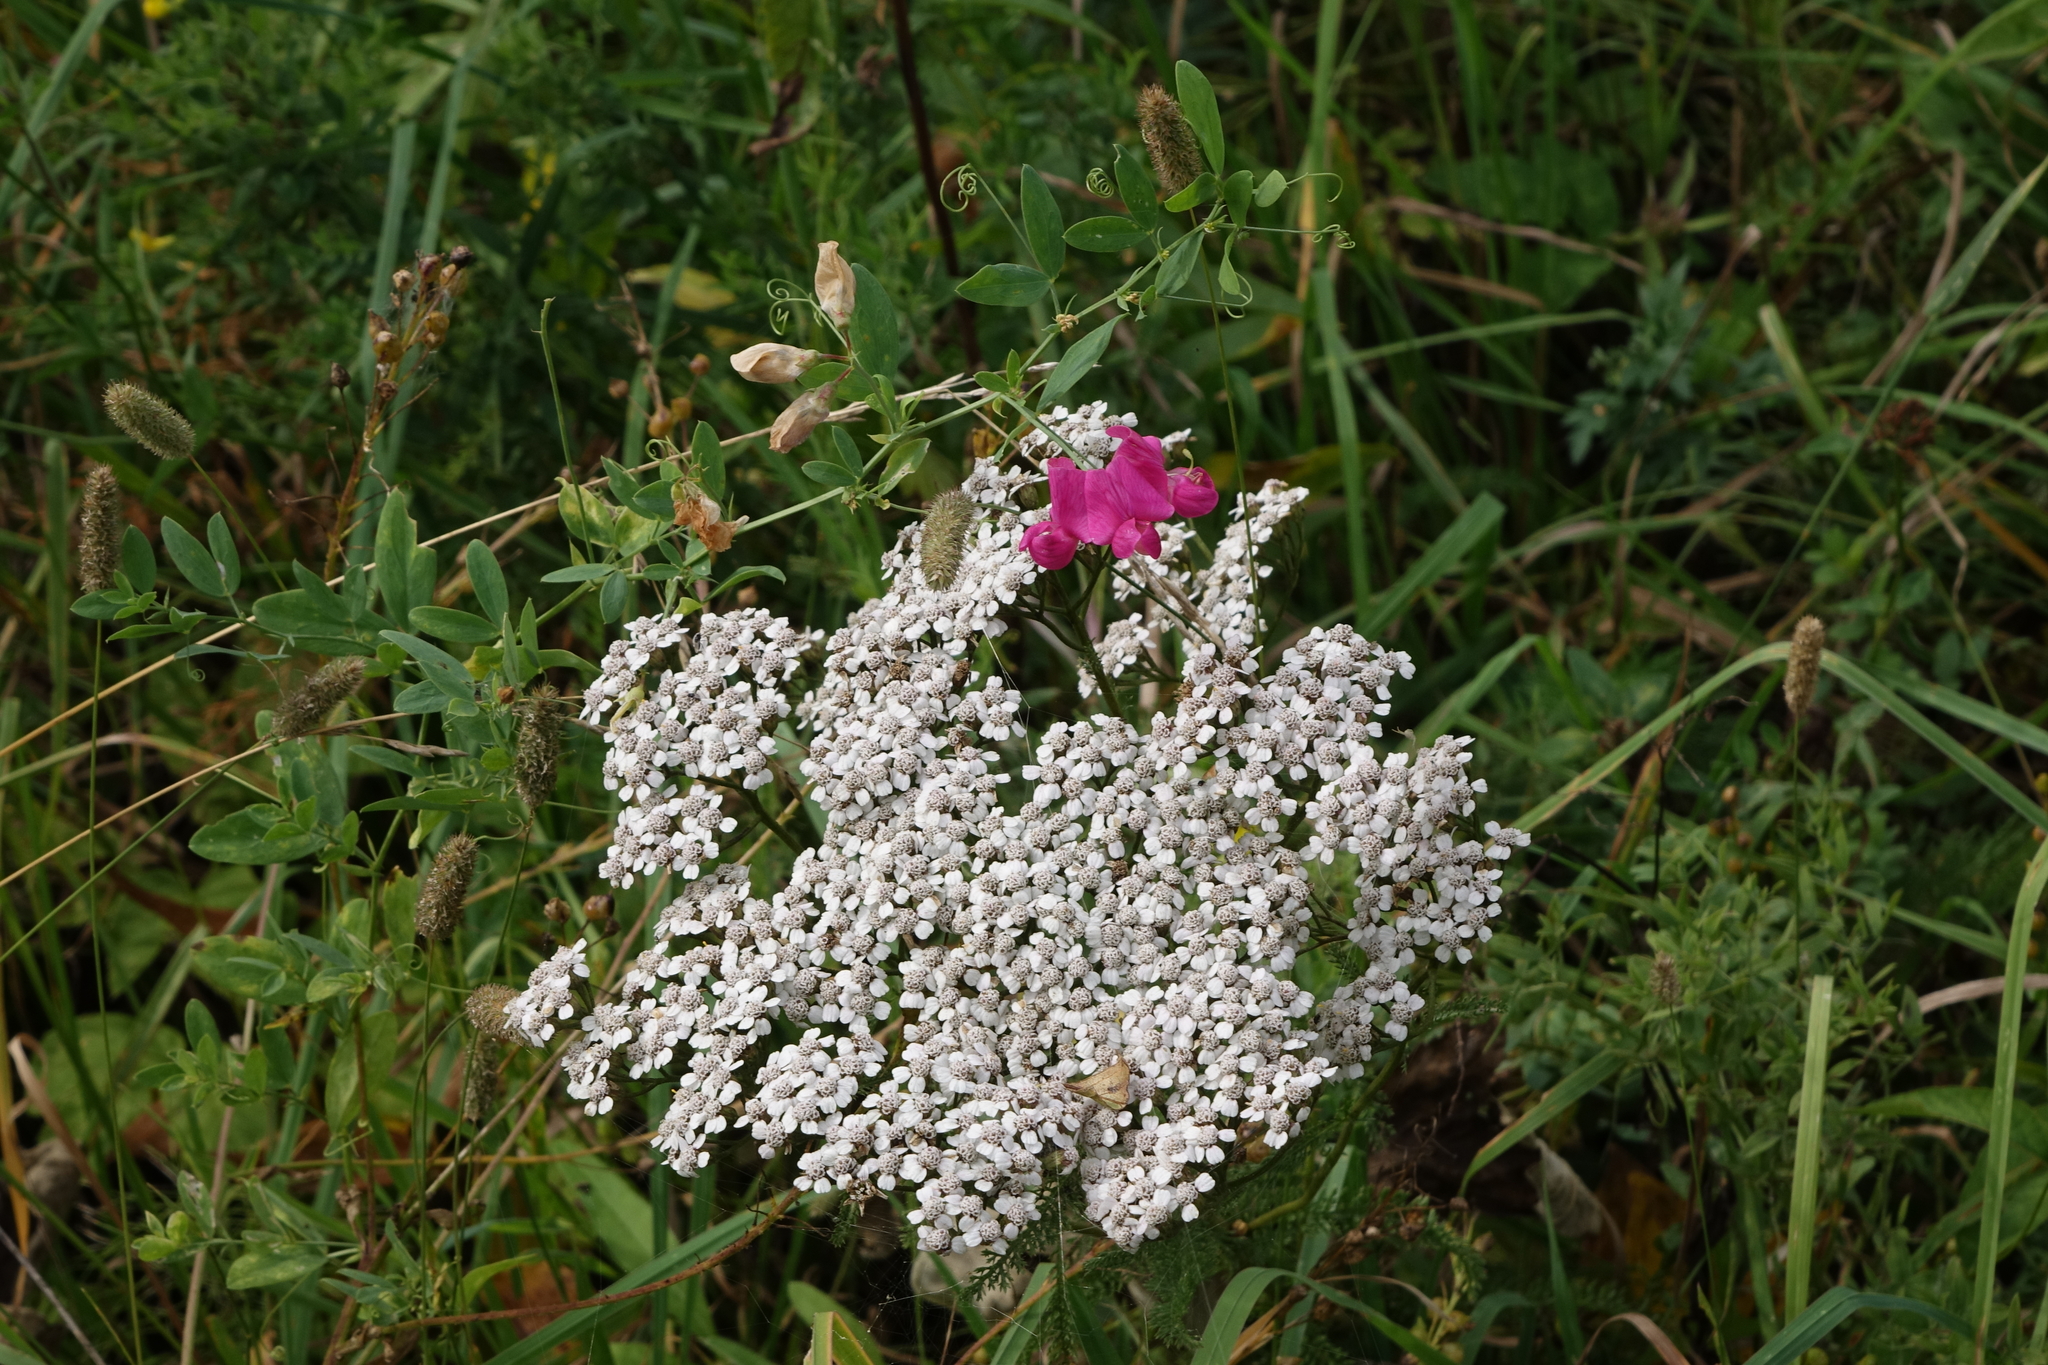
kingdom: Plantae
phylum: Tracheophyta
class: Magnoliopsida
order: Fabales
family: Fabaceae
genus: Lathyrus
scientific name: Lathyrus tuberosus
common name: Tuberous pea
